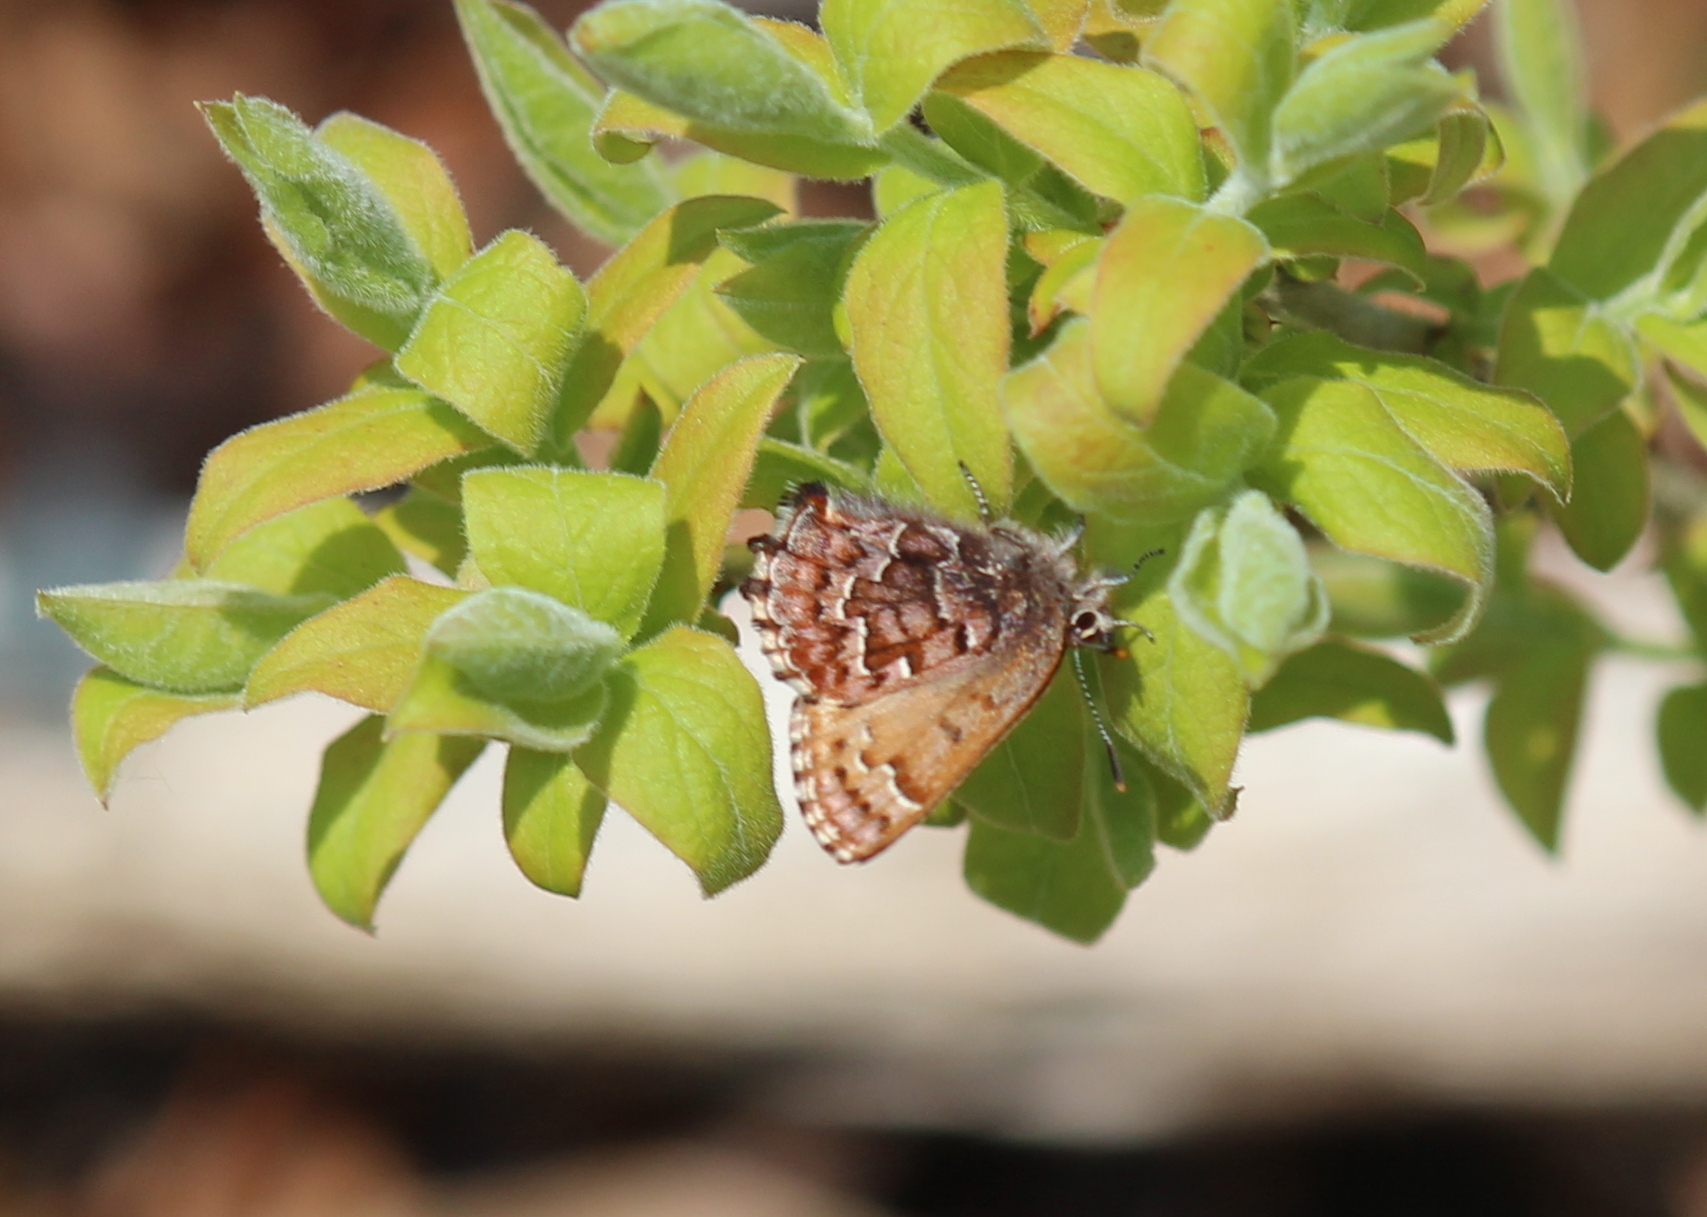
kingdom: Animalia
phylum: Arthropoda
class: Insecta
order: Lepidoptera
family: Lycaenidae
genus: Incisalia
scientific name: Incisalia niphon
